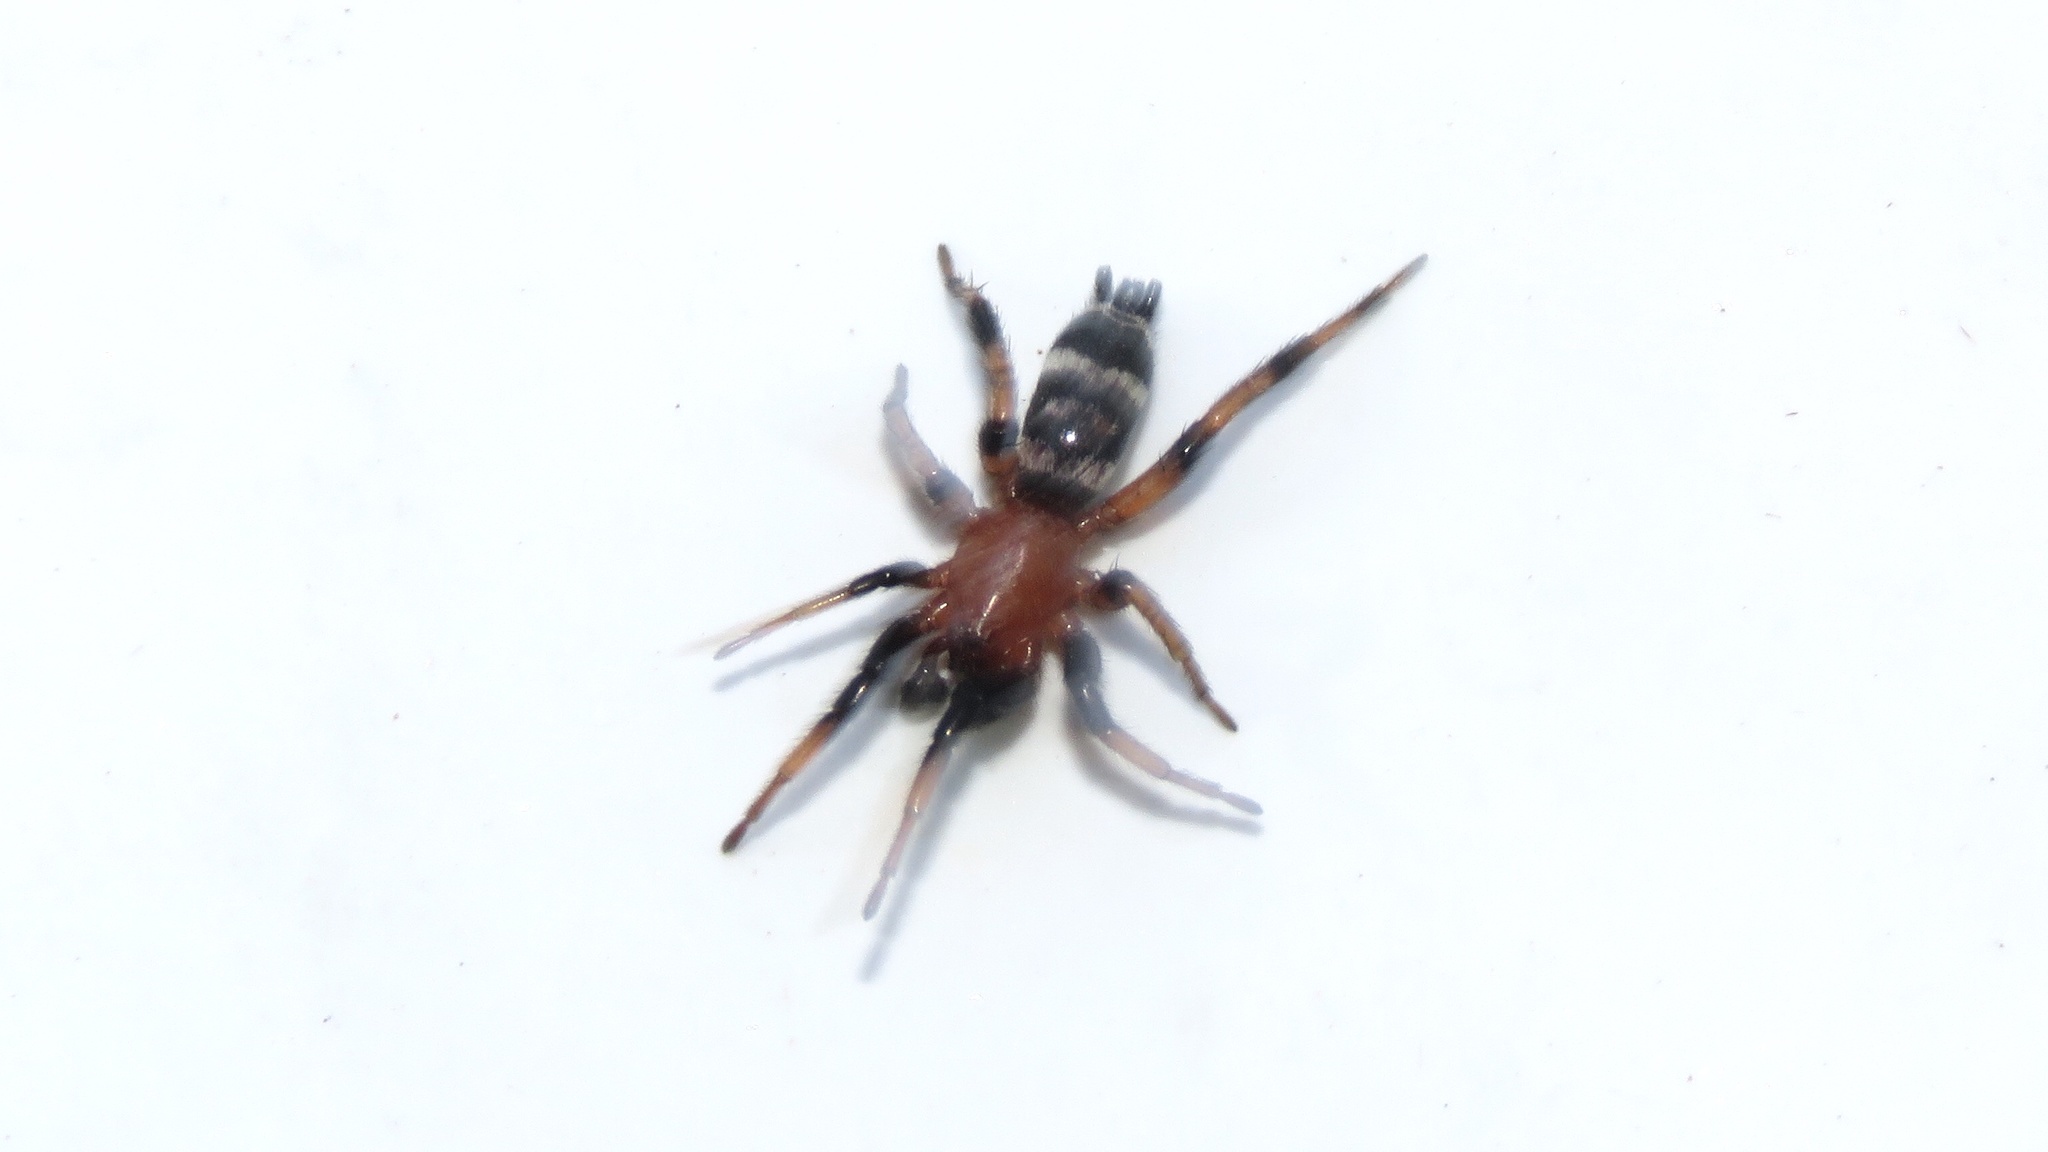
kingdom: Animalia
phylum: Arthropoda
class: Arachnida
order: Araneae
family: Gnaphosidae
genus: Sergiolus
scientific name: Sergiolus capulatus
